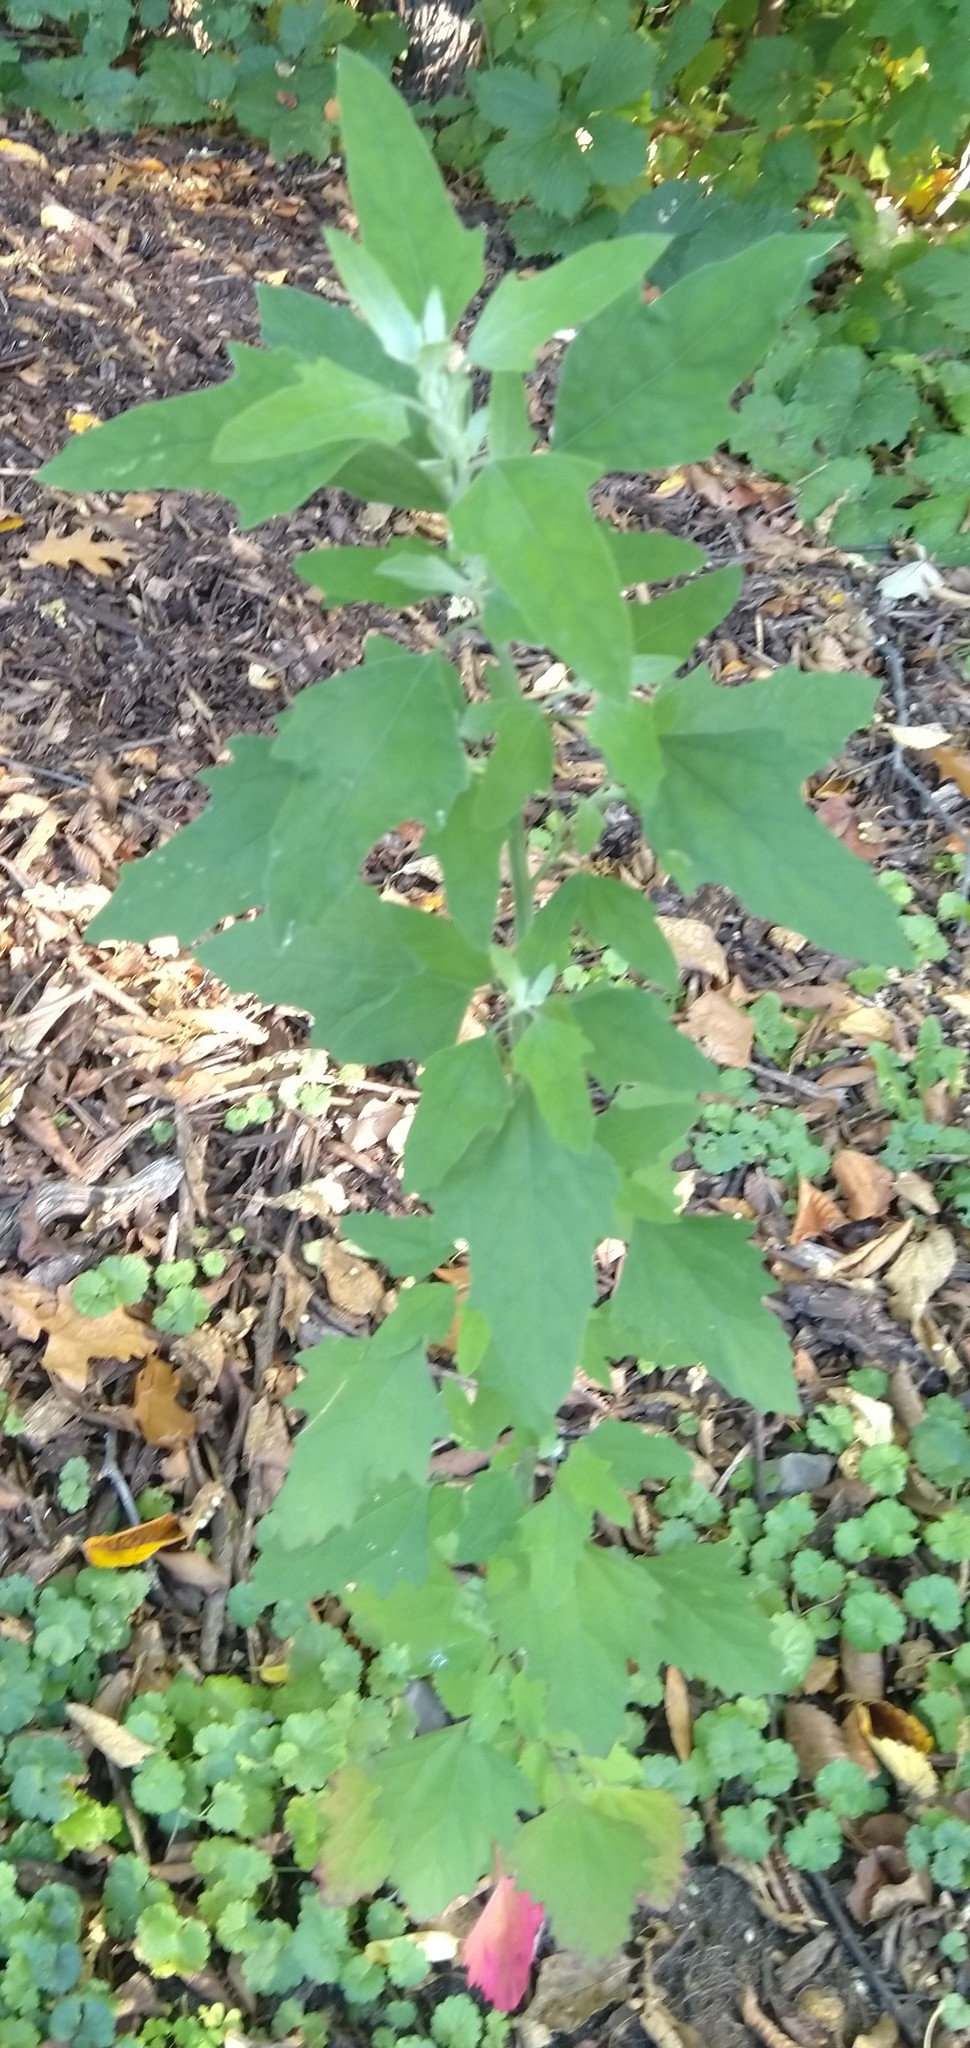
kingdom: Plantae
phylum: Tracheophyta
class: Magnoliopsida
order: Caryophyllales
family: Amaranthaceae
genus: Chenopodium
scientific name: Chenopodium album
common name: Fat-hen
